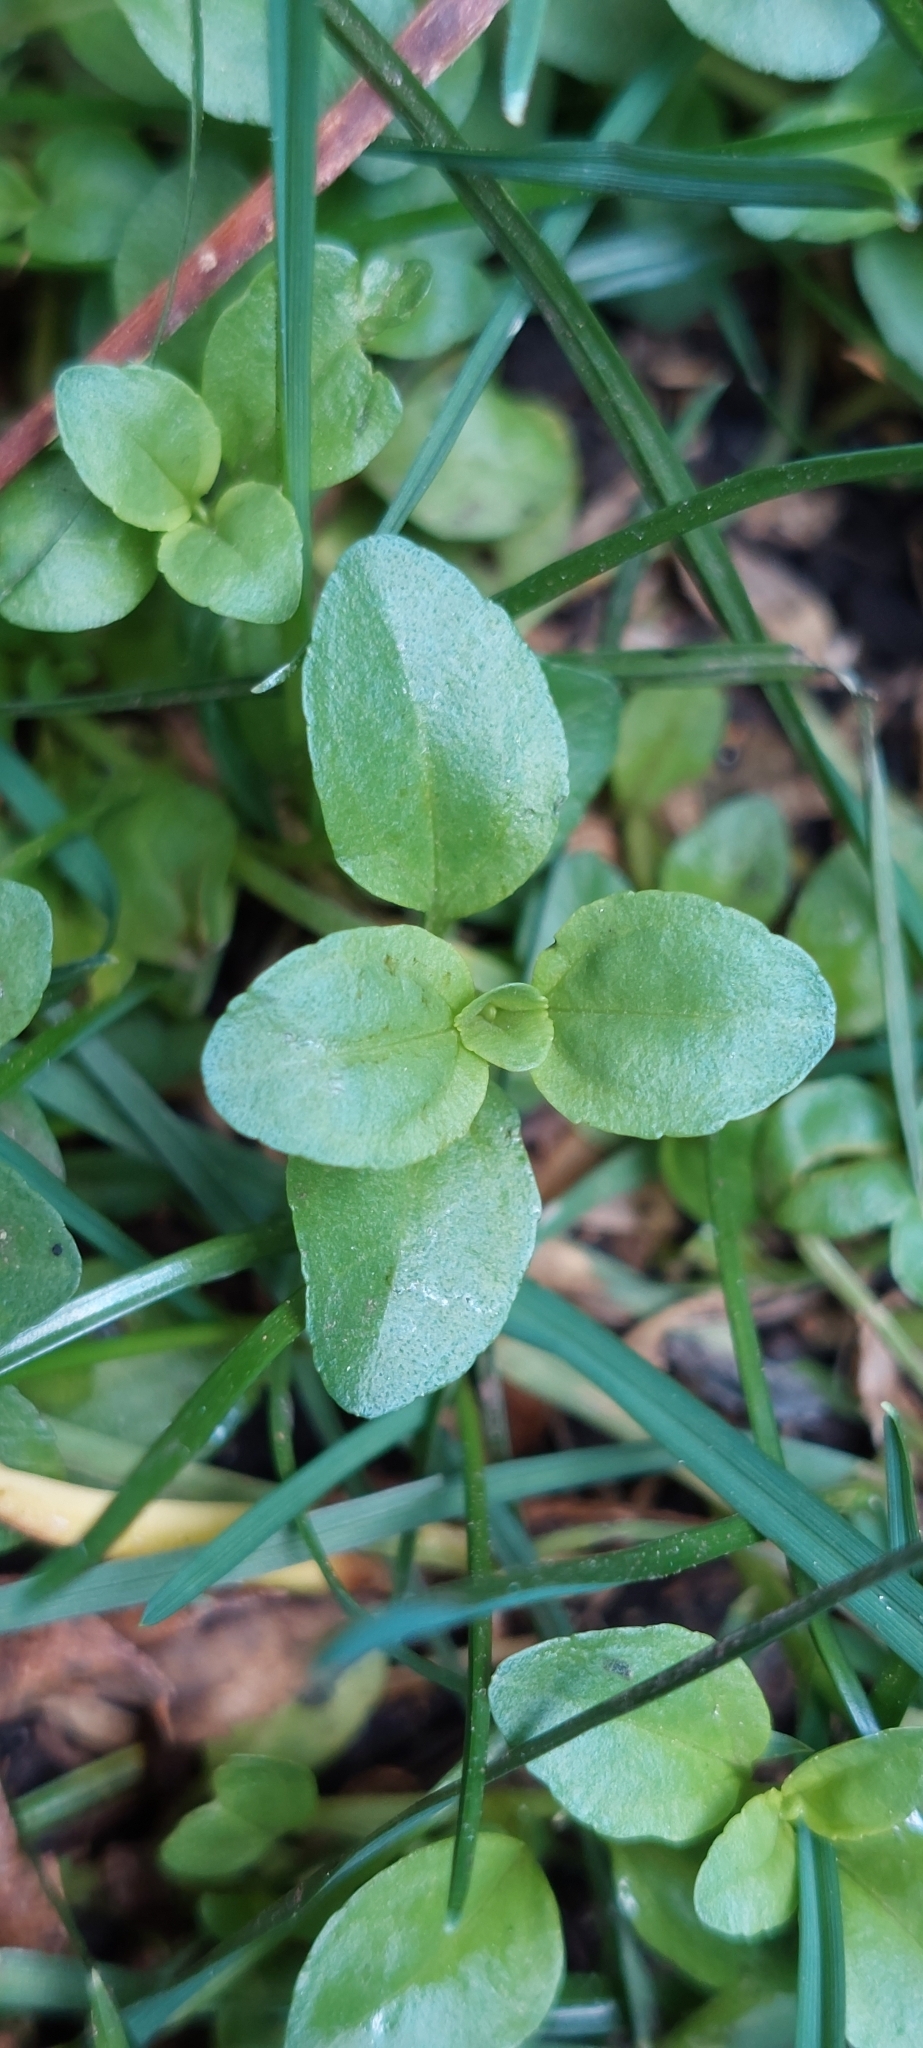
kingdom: Plantae
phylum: Tracheophyta
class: Magnoliopsida
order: Lamiales
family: Plantaginaceae
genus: Veronica
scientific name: Veronica serpyllifolia
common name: Thyme-leaved speedwell
